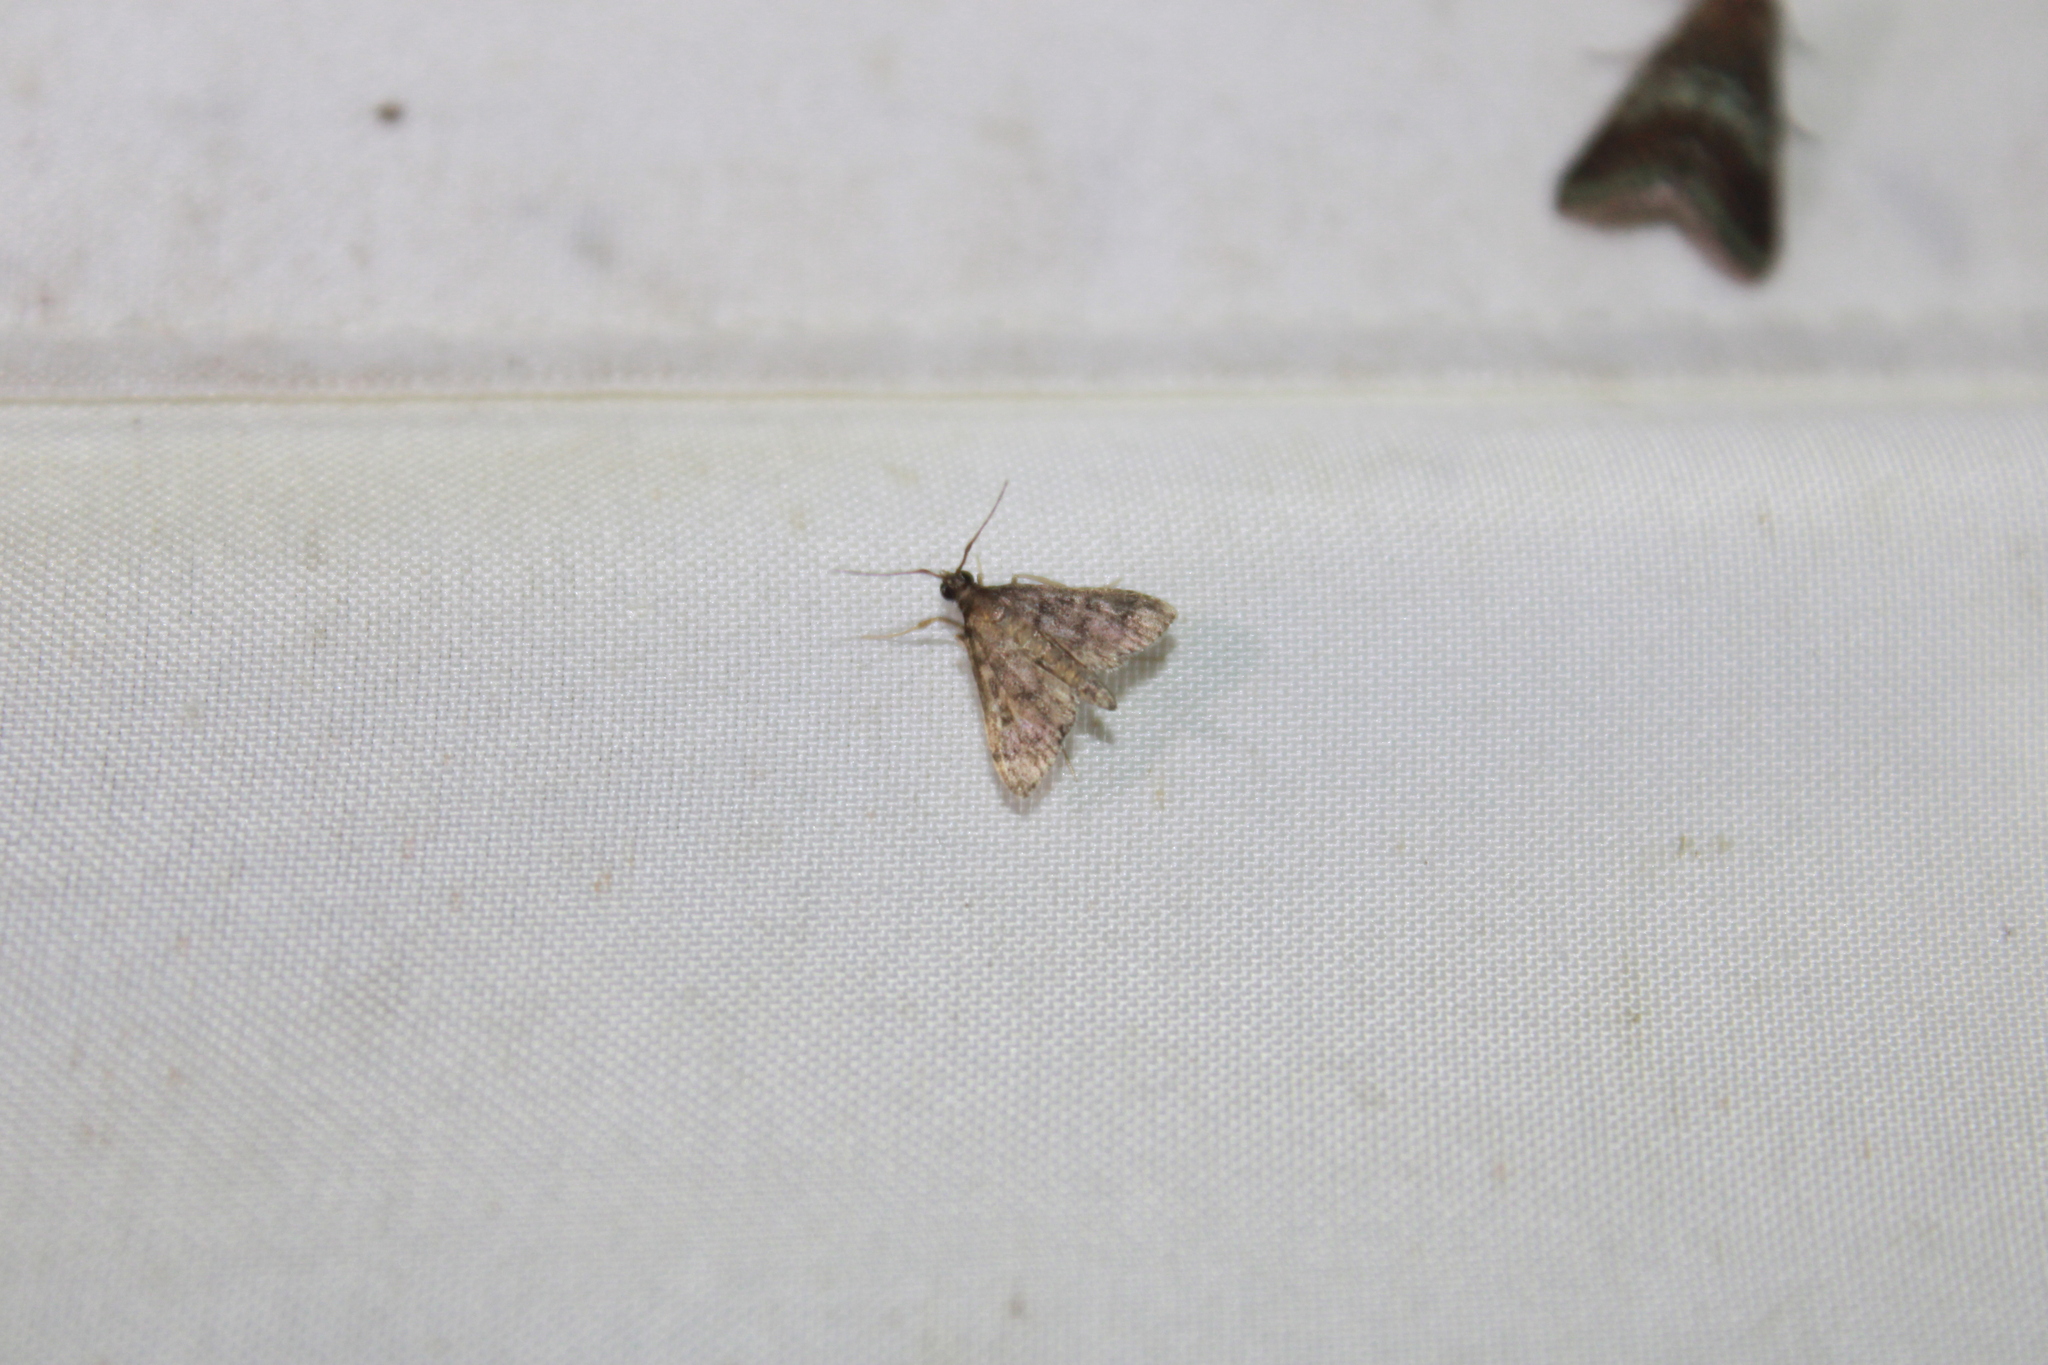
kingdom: Animalia
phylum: Arthropoda
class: Insecta
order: Lepidoptera
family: Crambidae
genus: Piletocera
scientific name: Piletocera bufalis
